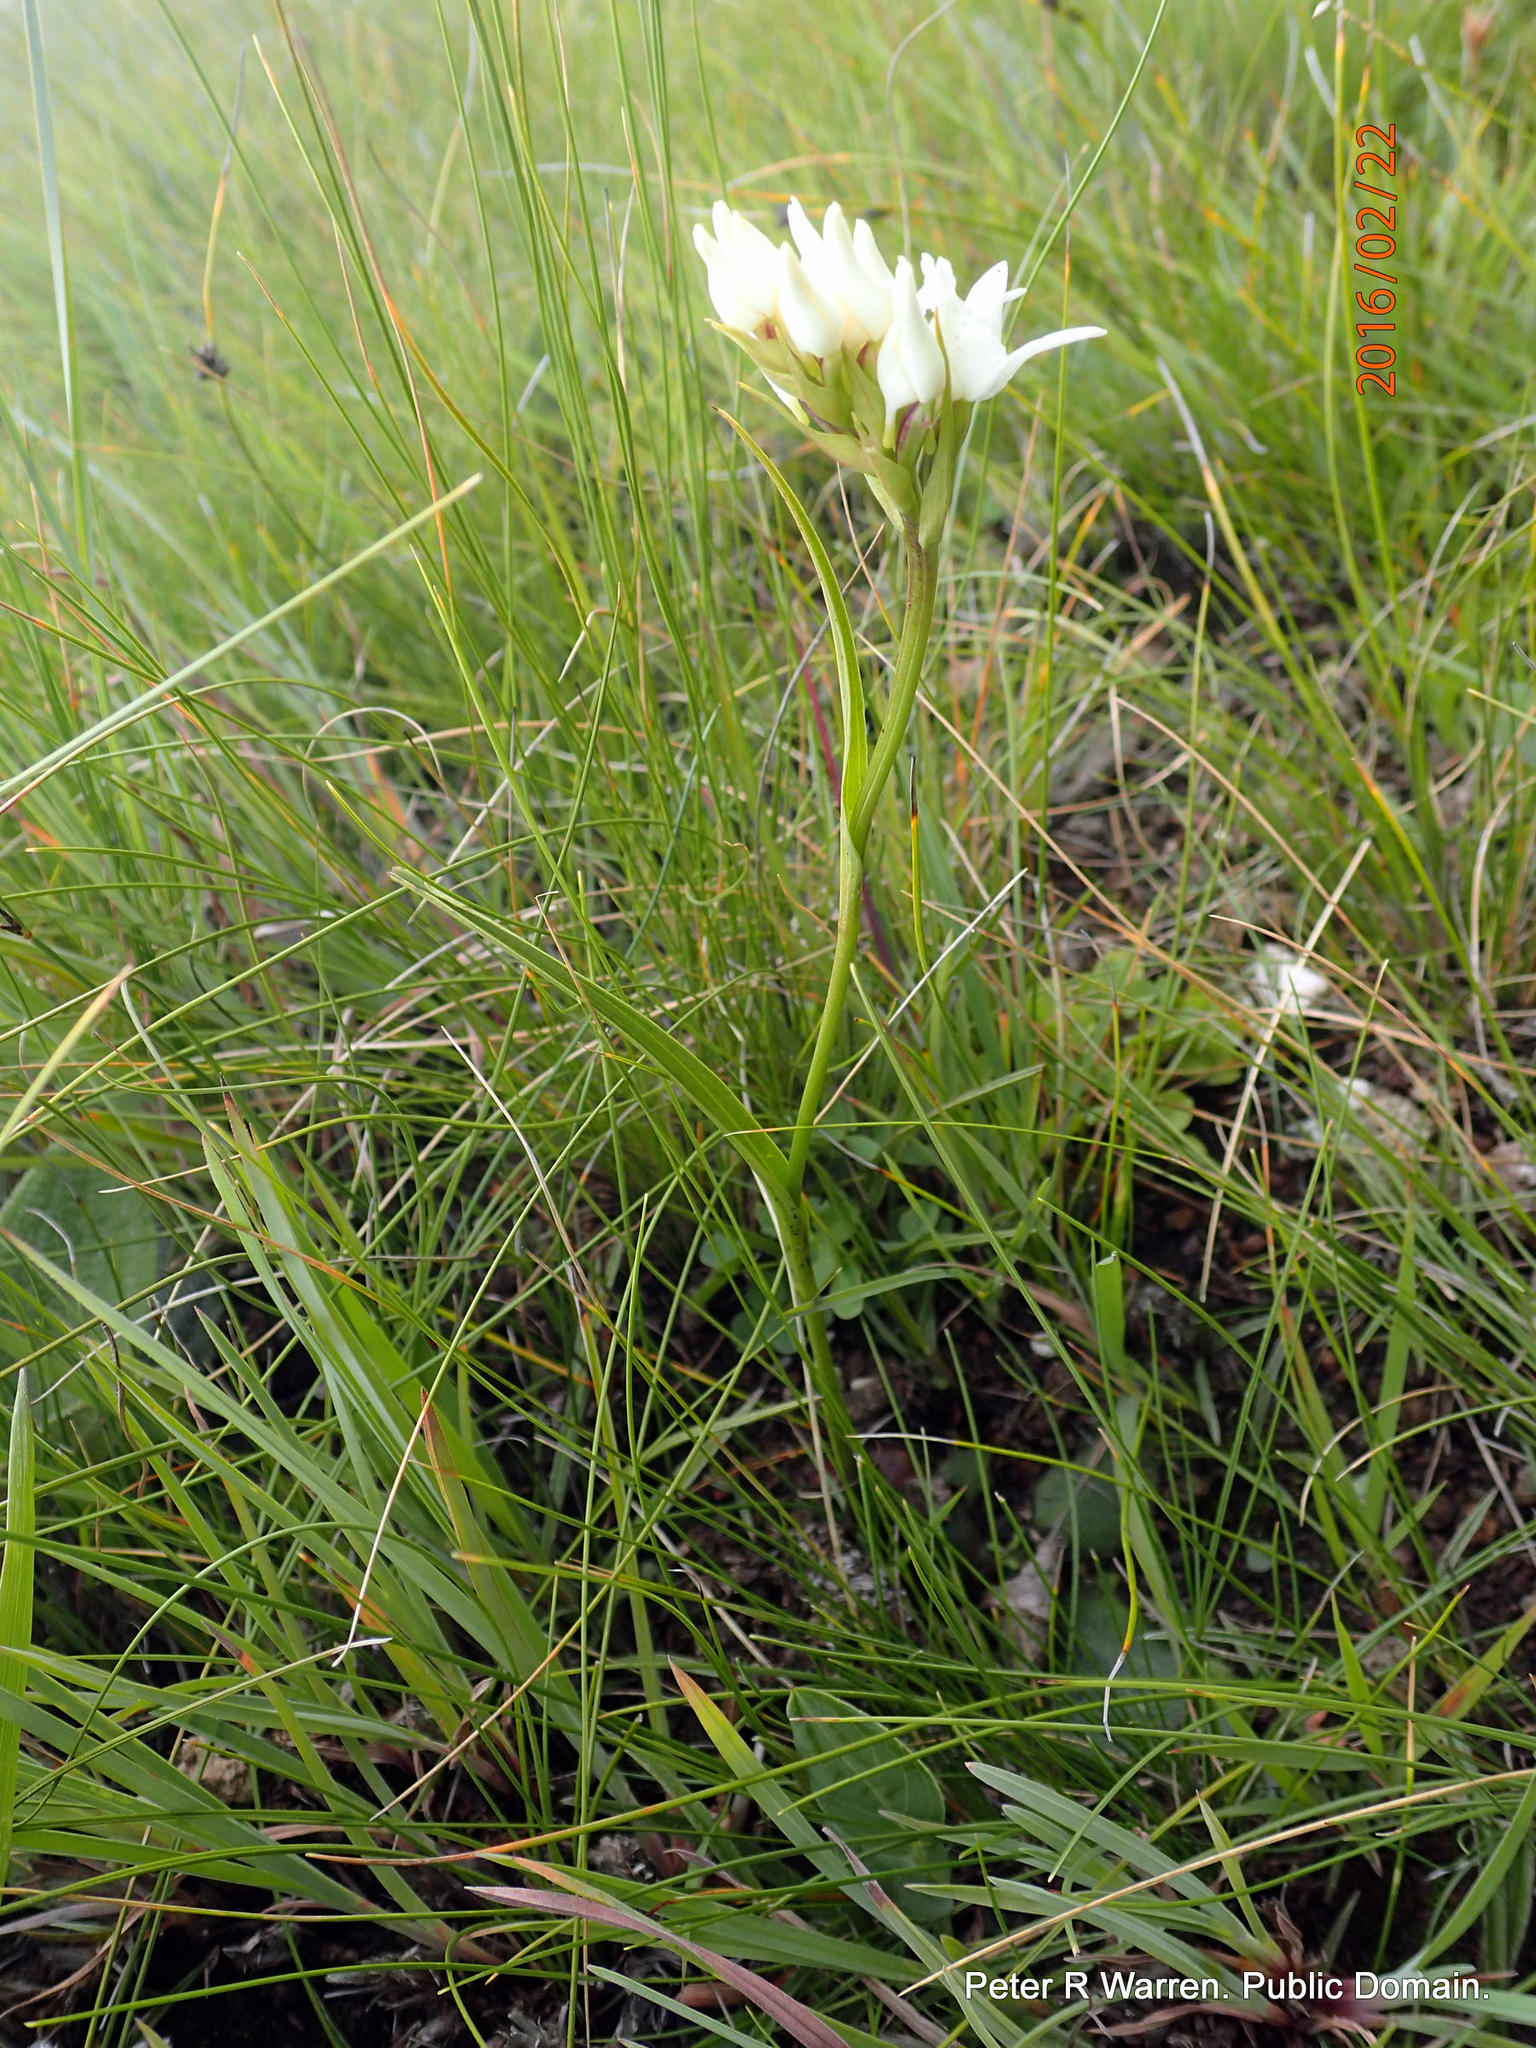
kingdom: Plantae
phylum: Tracheophyta
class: Liliopsida
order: Asparagales
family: Orchidaceae
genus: Brownleea
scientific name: Brownleea galpinii
